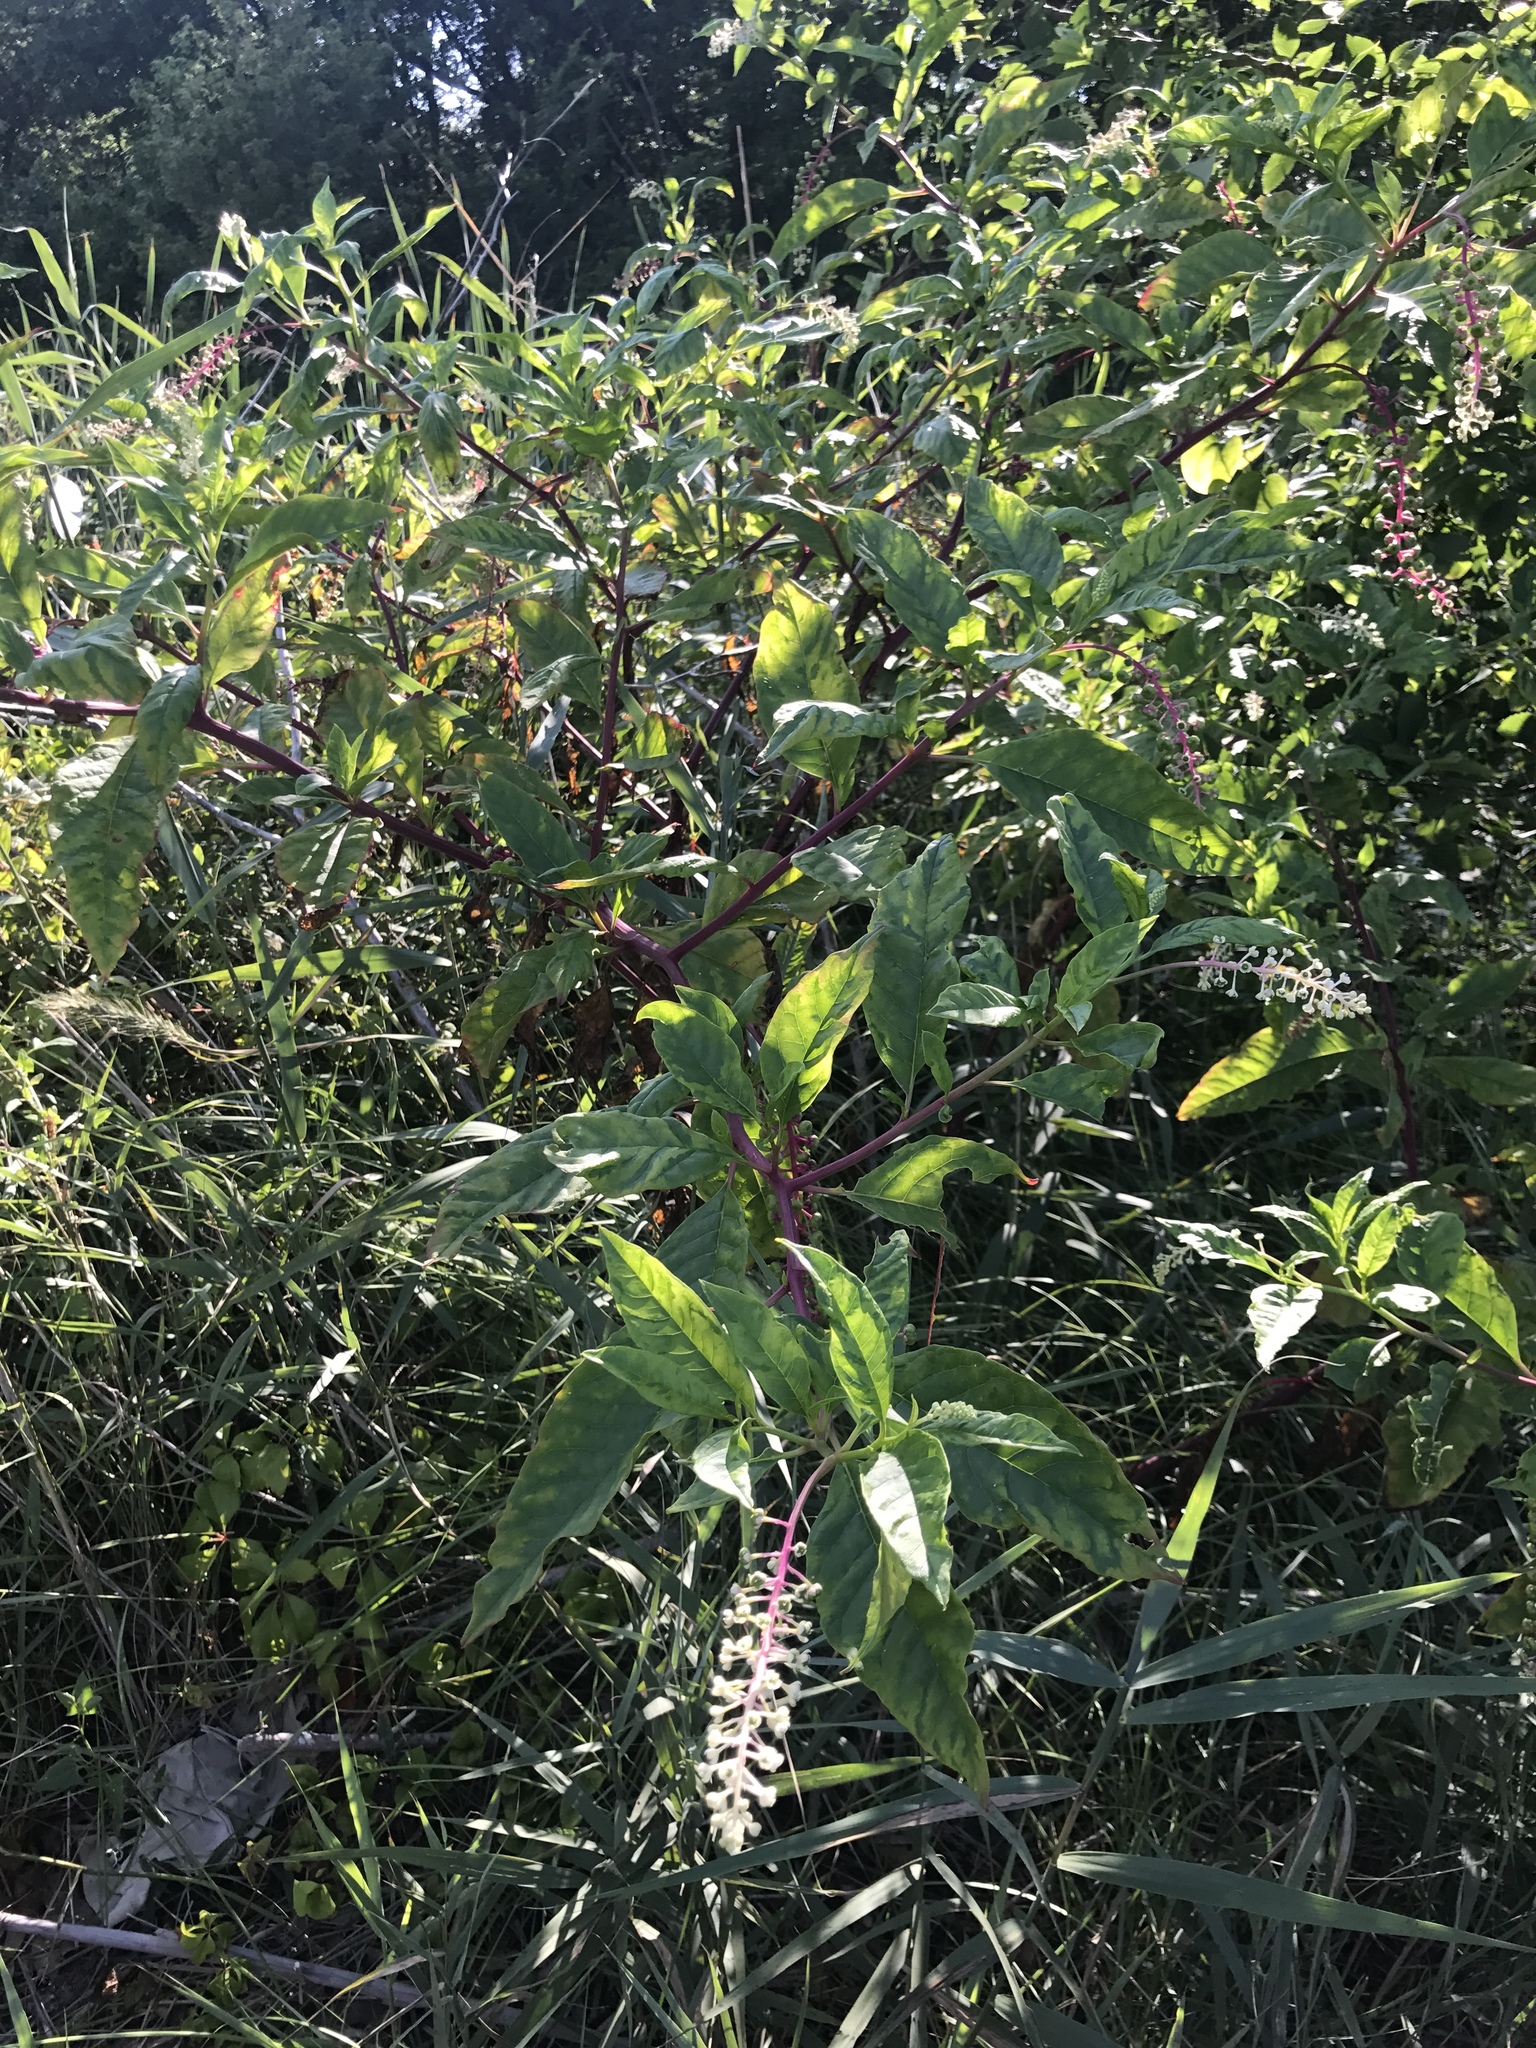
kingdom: Plantae
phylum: Tracheophyta
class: Magnoliopsida
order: Caryophyllales
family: Phytolaccaceae
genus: Phytolacca
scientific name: Phytolacca americana
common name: American pokeweed
